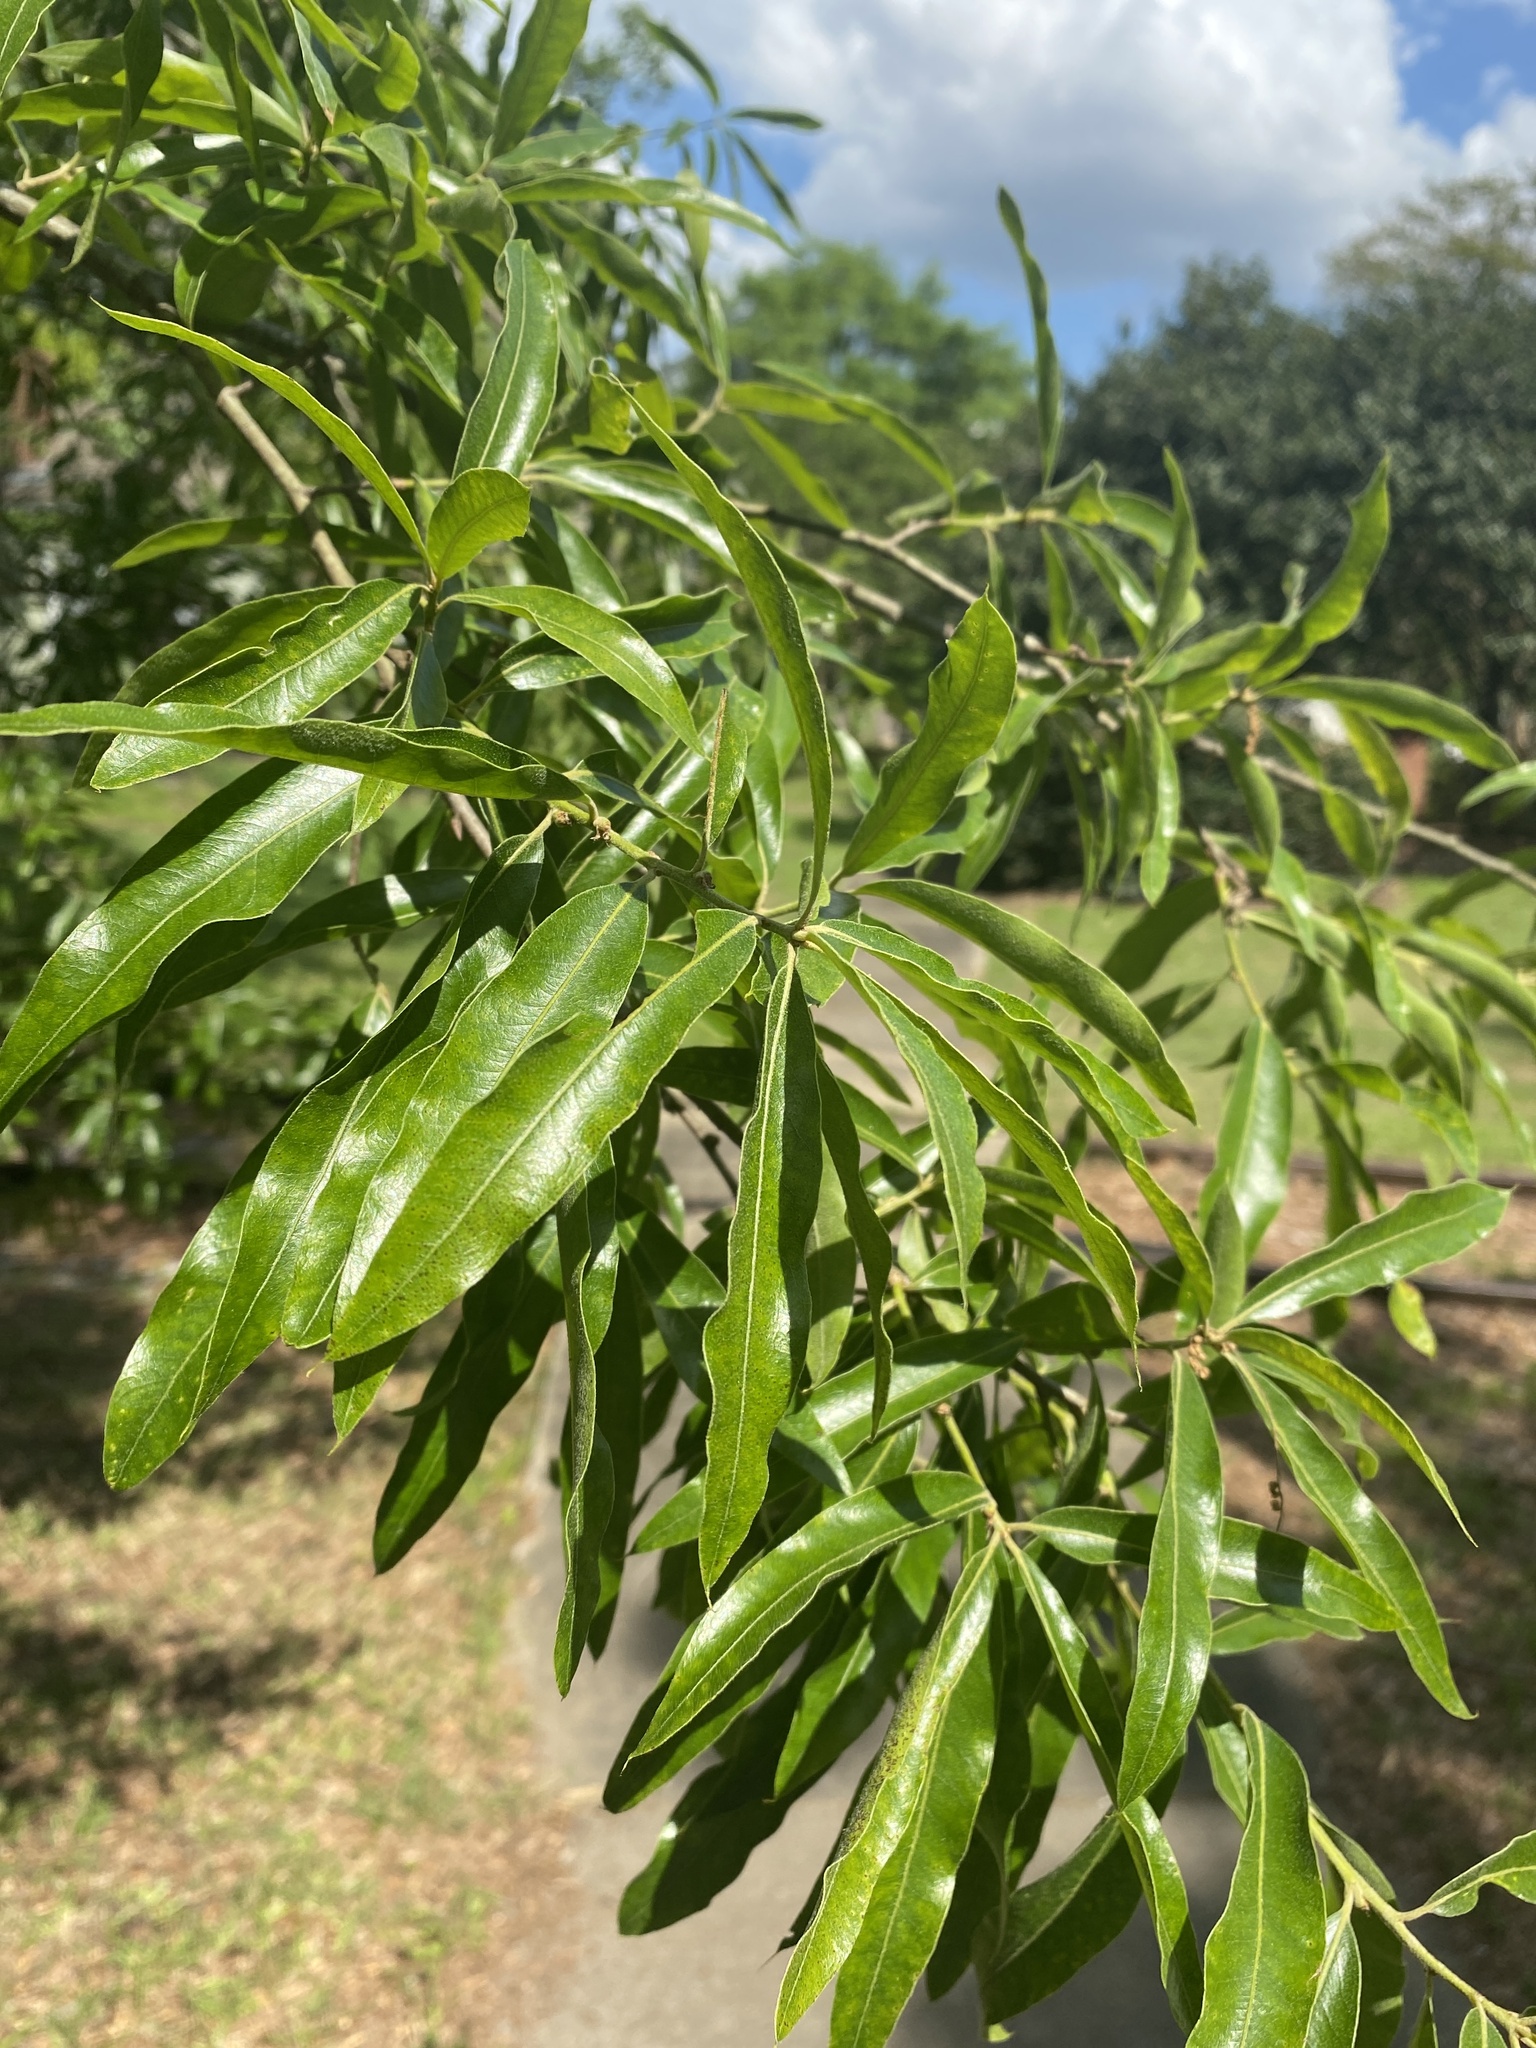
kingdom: Plantae
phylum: Tracheophyta
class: Magnoliopsida
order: Fagales
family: Fagaceae
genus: Quercus
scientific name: Quercus phellos
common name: Willow oak
